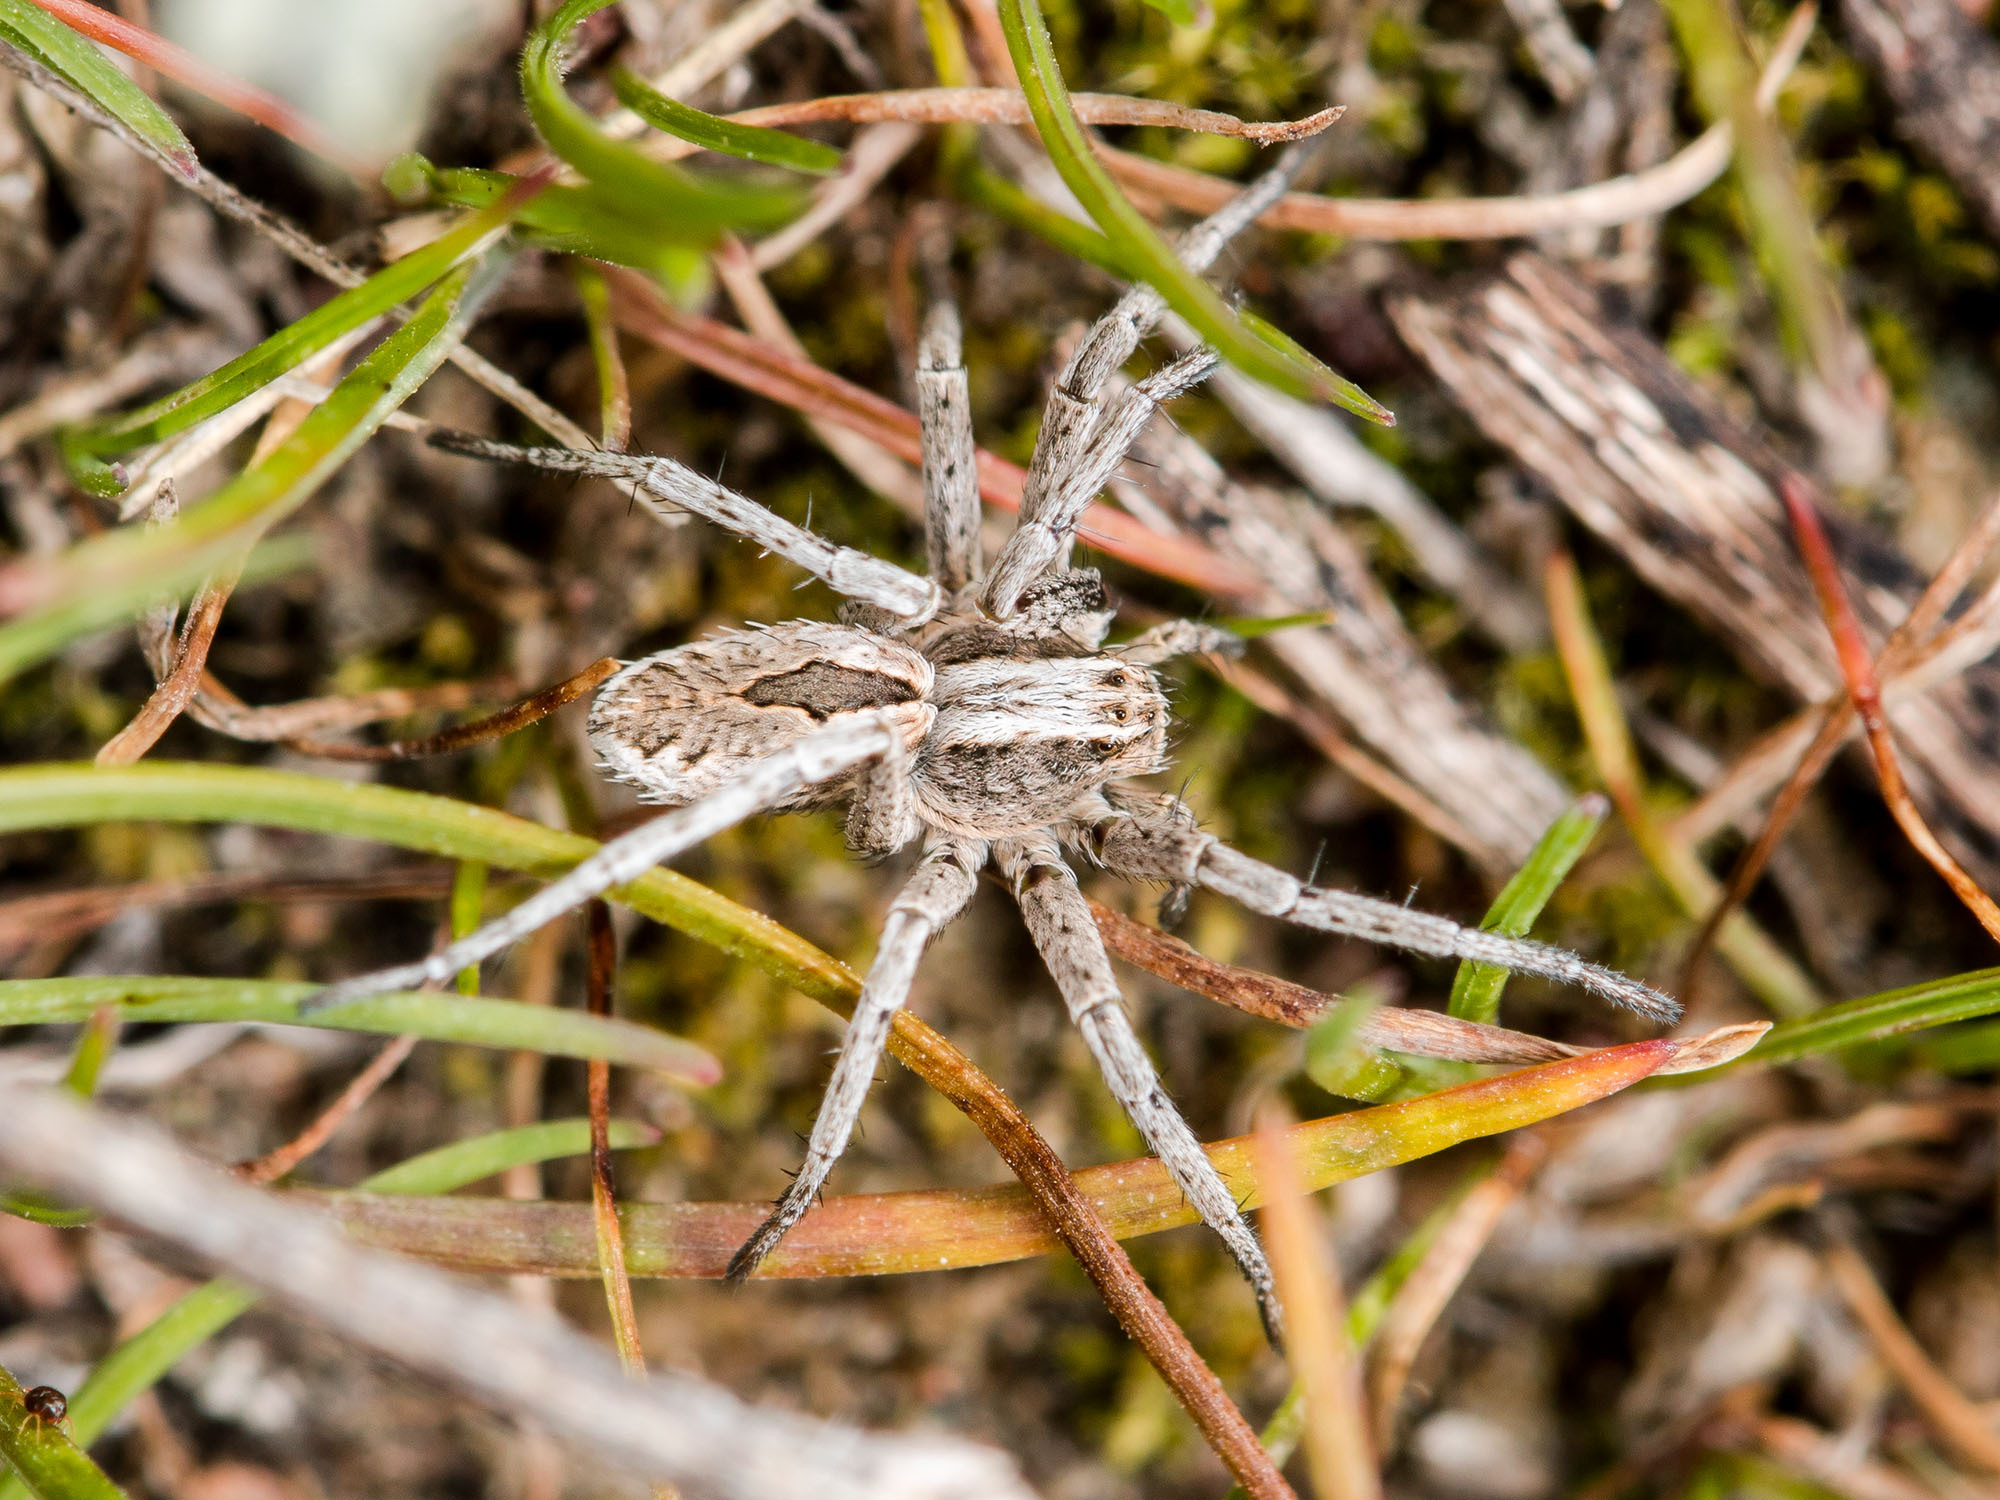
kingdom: Animalia
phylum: Arthropoda
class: Arachnida
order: Araneae
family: Philodromidae
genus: Thanatus
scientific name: Thanatus imbecillus
